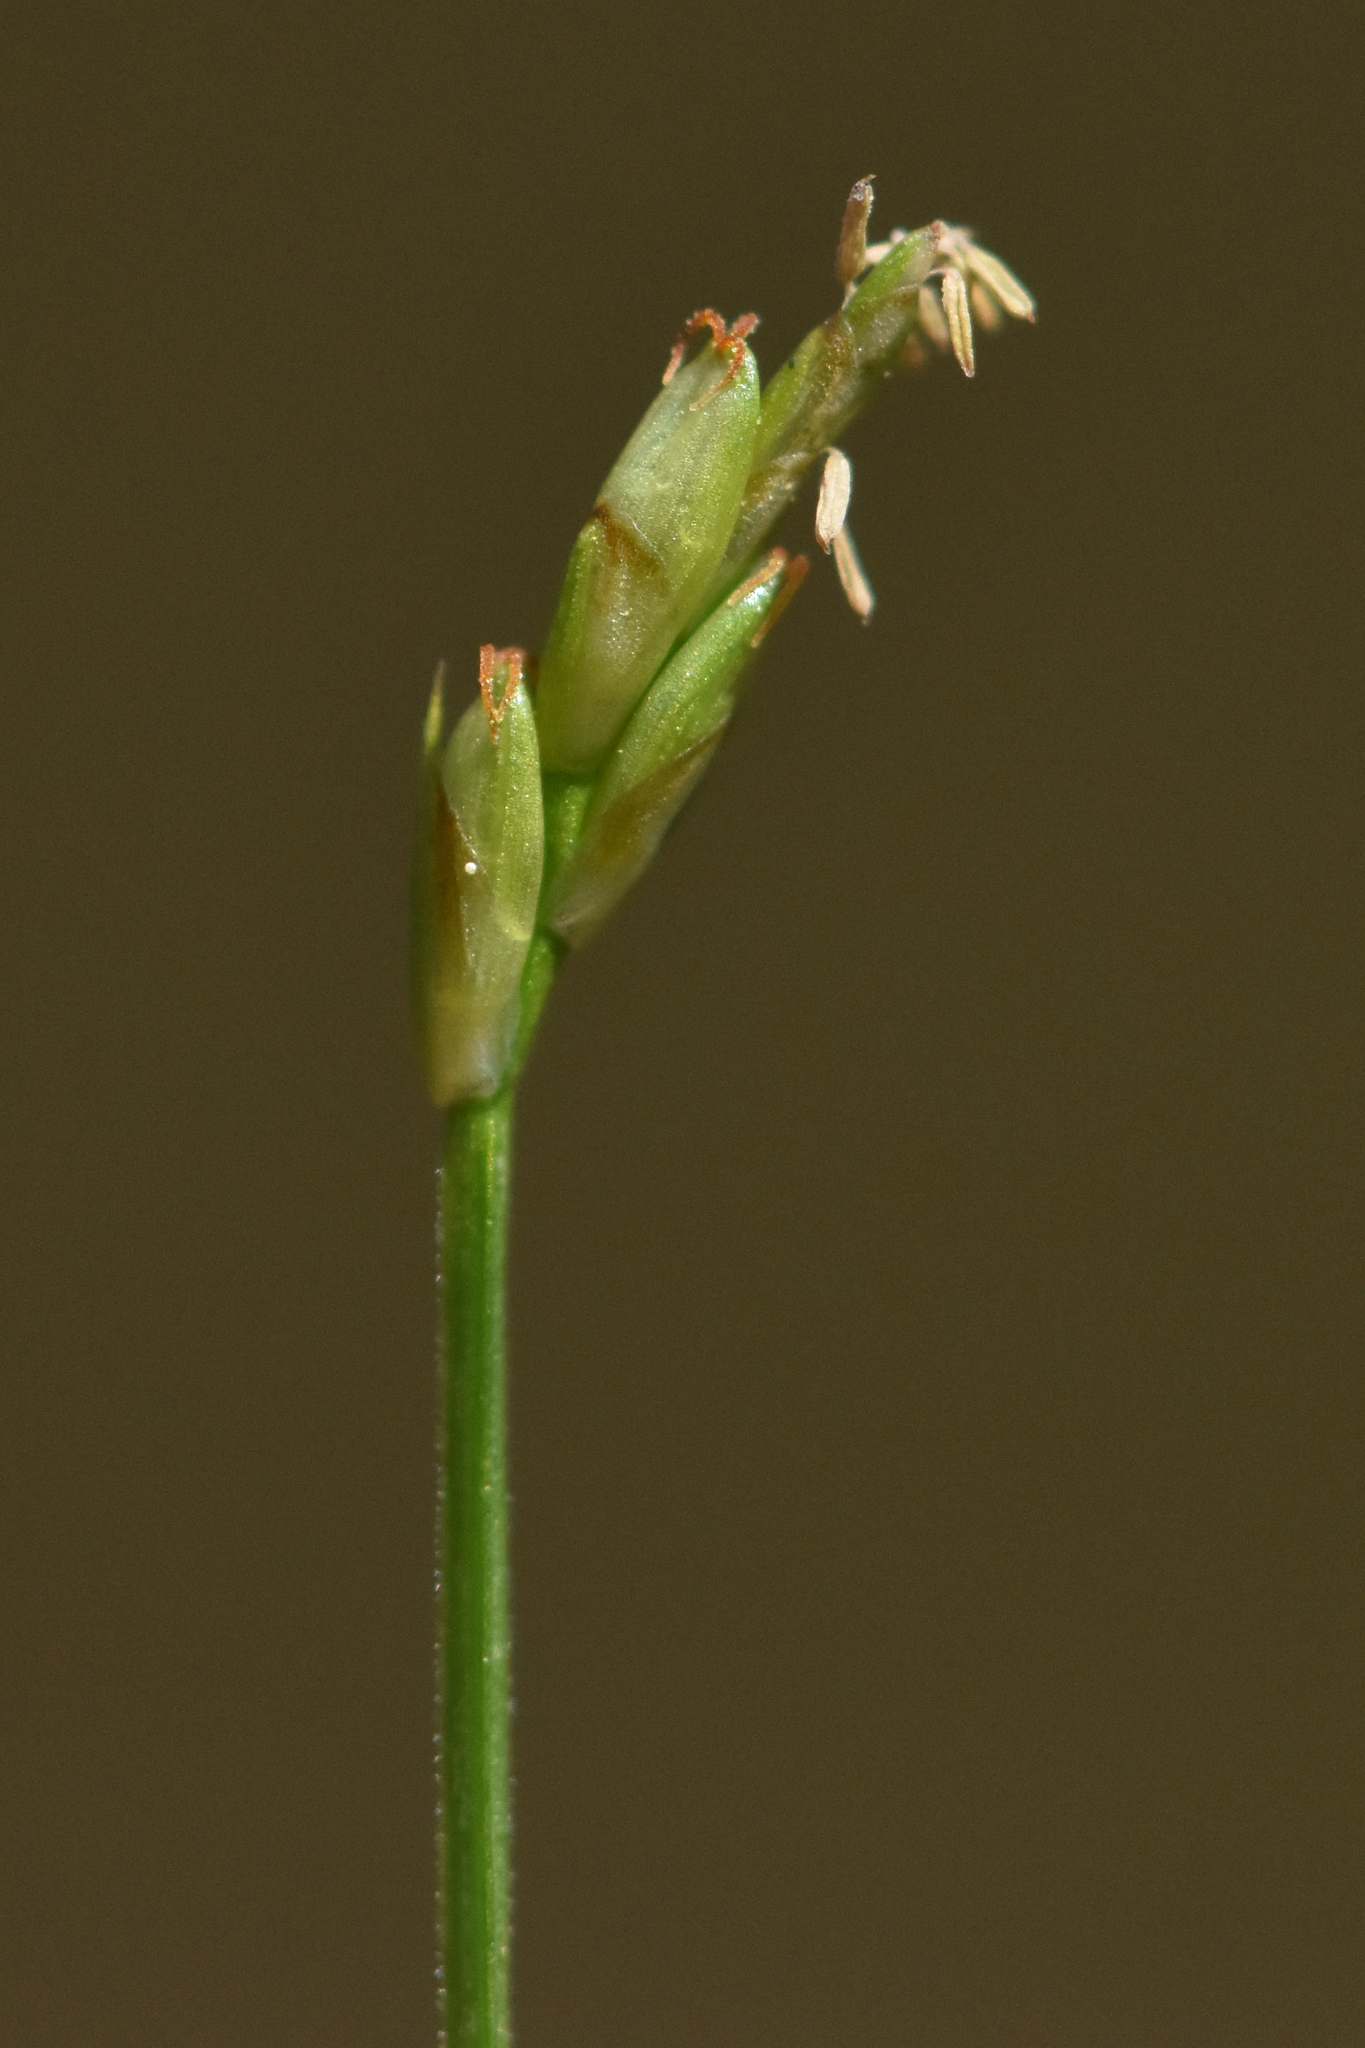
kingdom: Plantae
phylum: Tracheophyta
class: Liliopsida
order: Poales
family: Cyperaceae
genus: Carex
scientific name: Carex leptalea
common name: Bristly-stalked sedge
